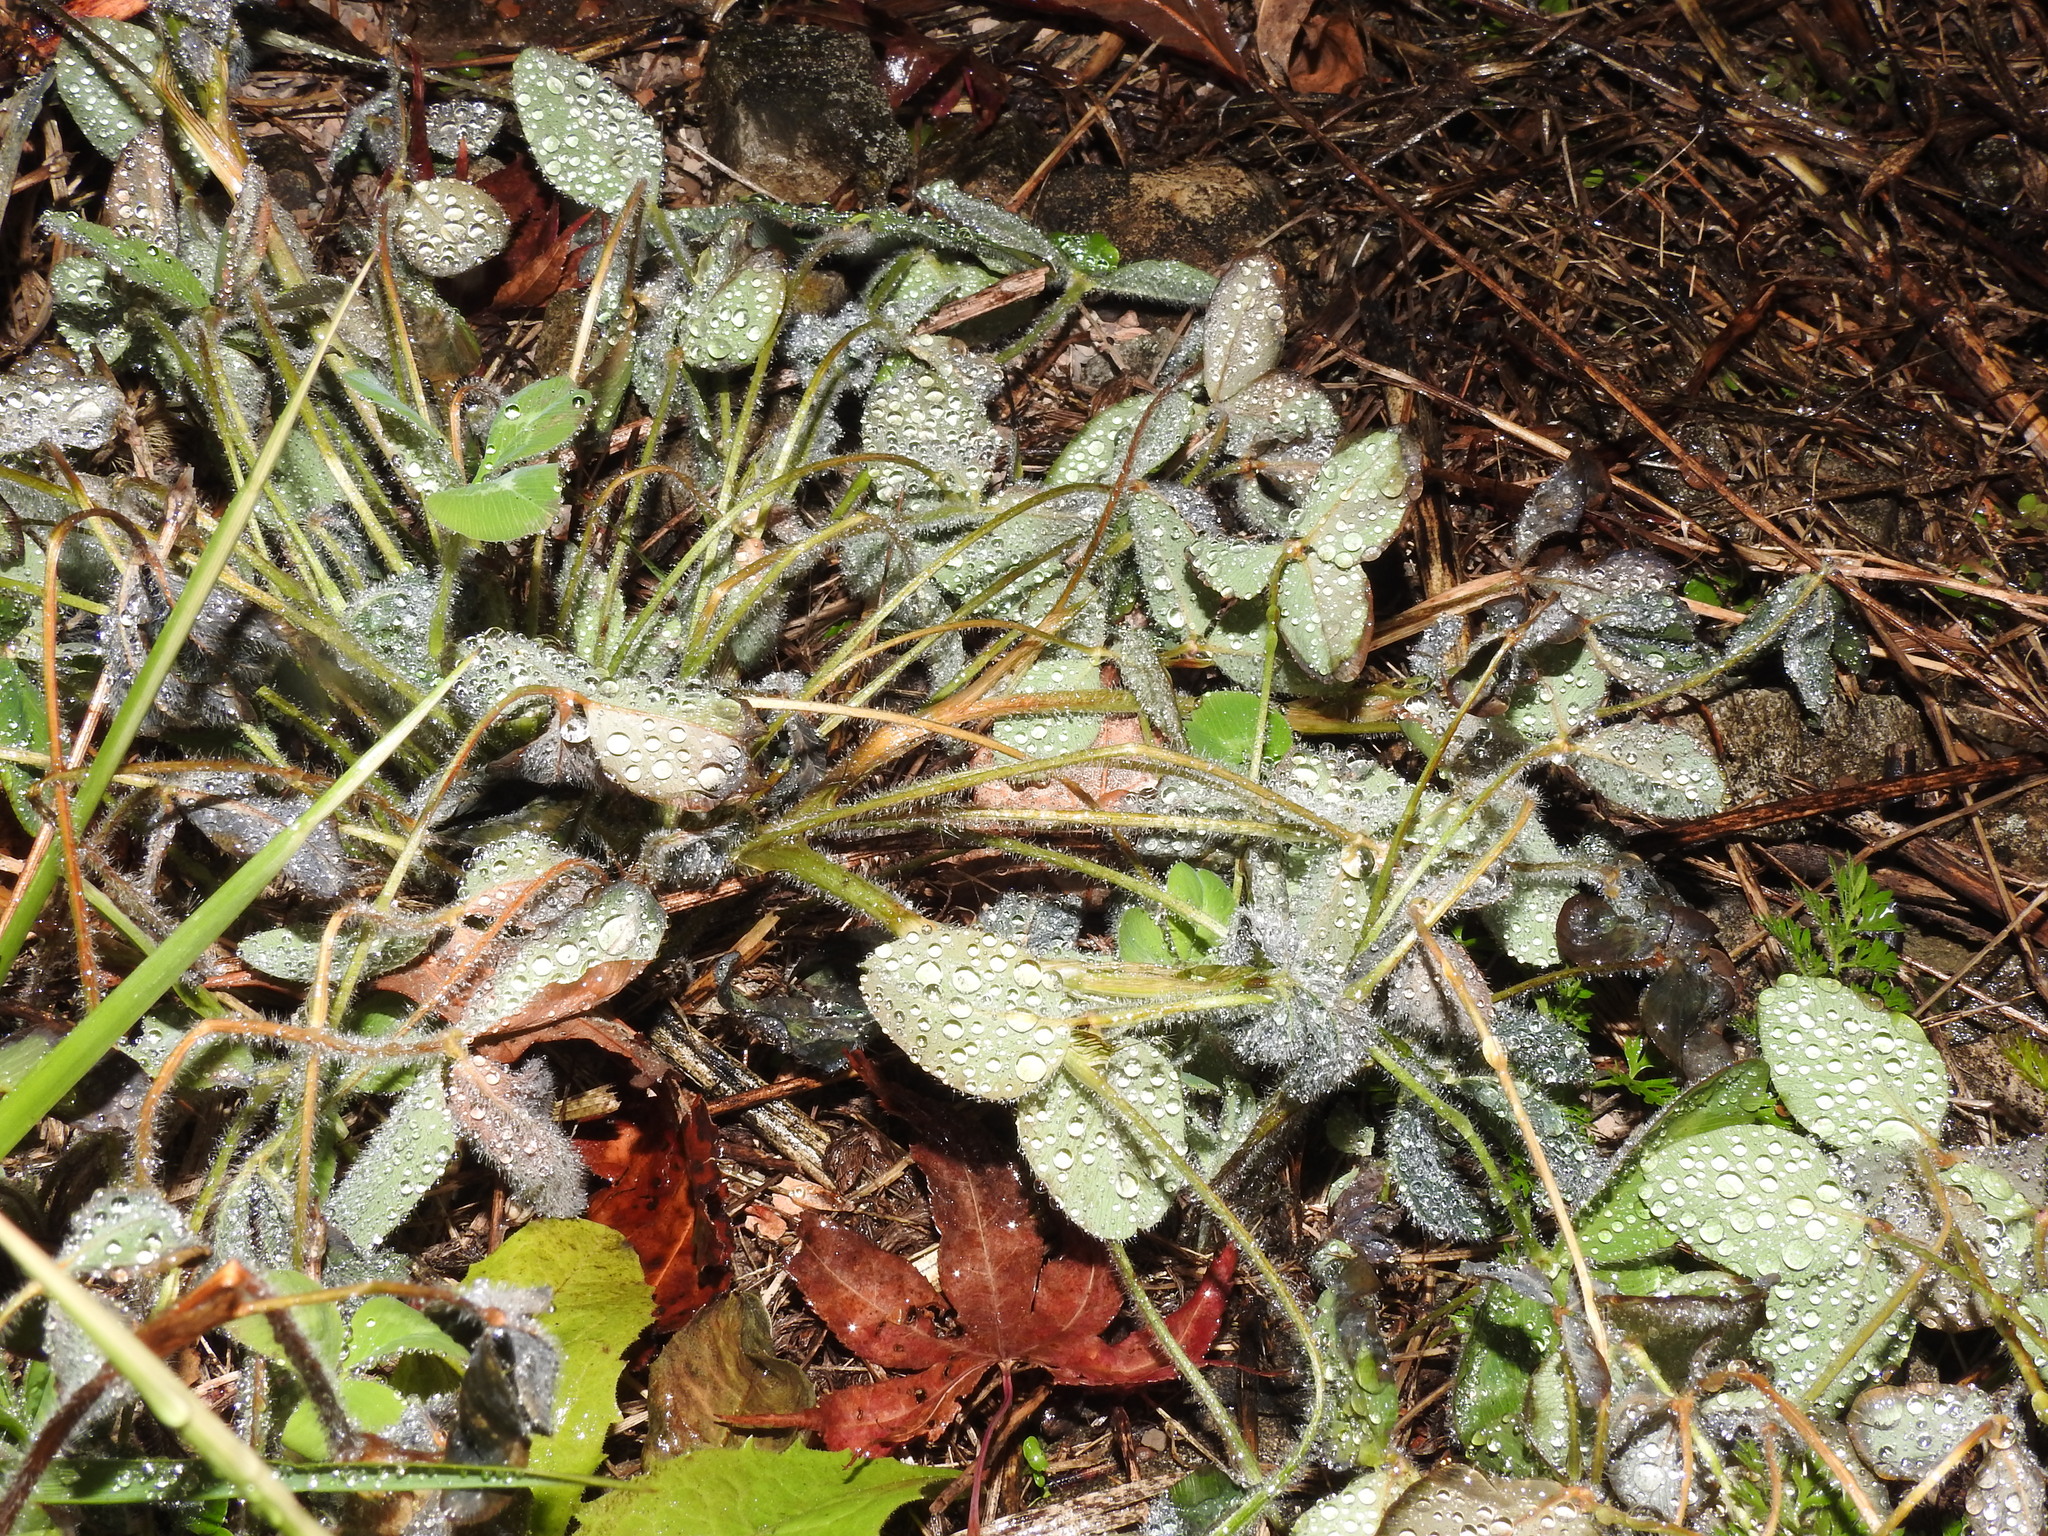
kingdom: Plantae
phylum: Tracheophyta
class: Magnoliopsida
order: Fabales
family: Fabaceae
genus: Trifolium
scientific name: Trifolium pratense
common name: Red clover
